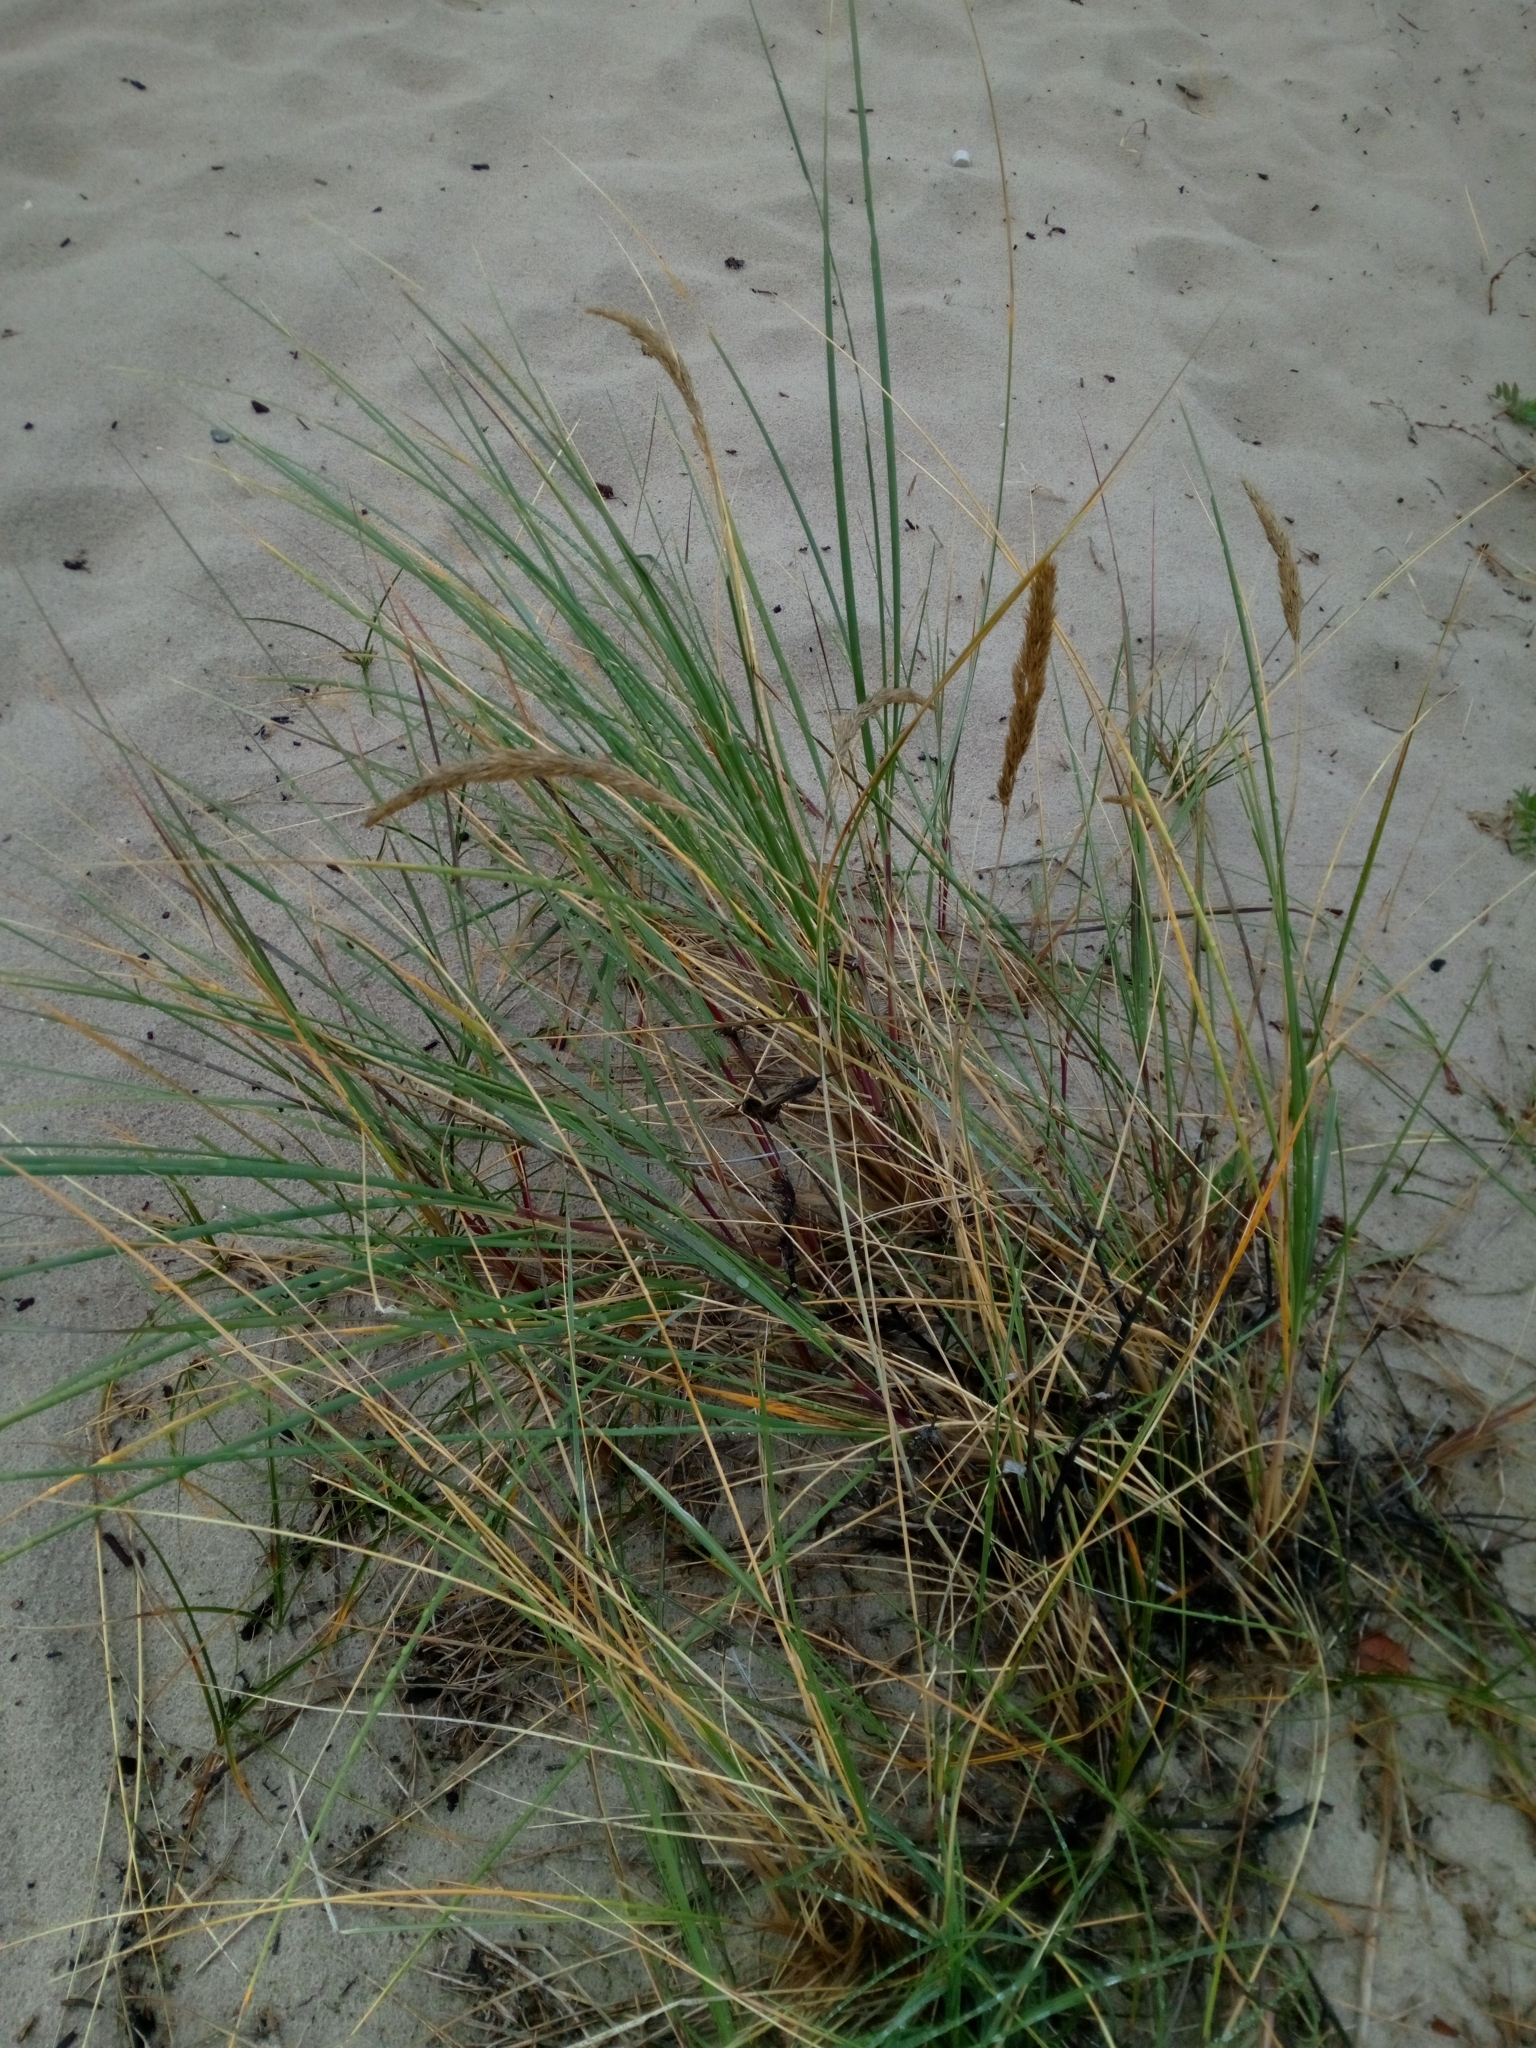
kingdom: Plantae
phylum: Tracheophyta
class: Liliopsida
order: Poales
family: Poaceae
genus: Calamagrostis
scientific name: Calamagrostis arenaria
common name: European beachgrass
